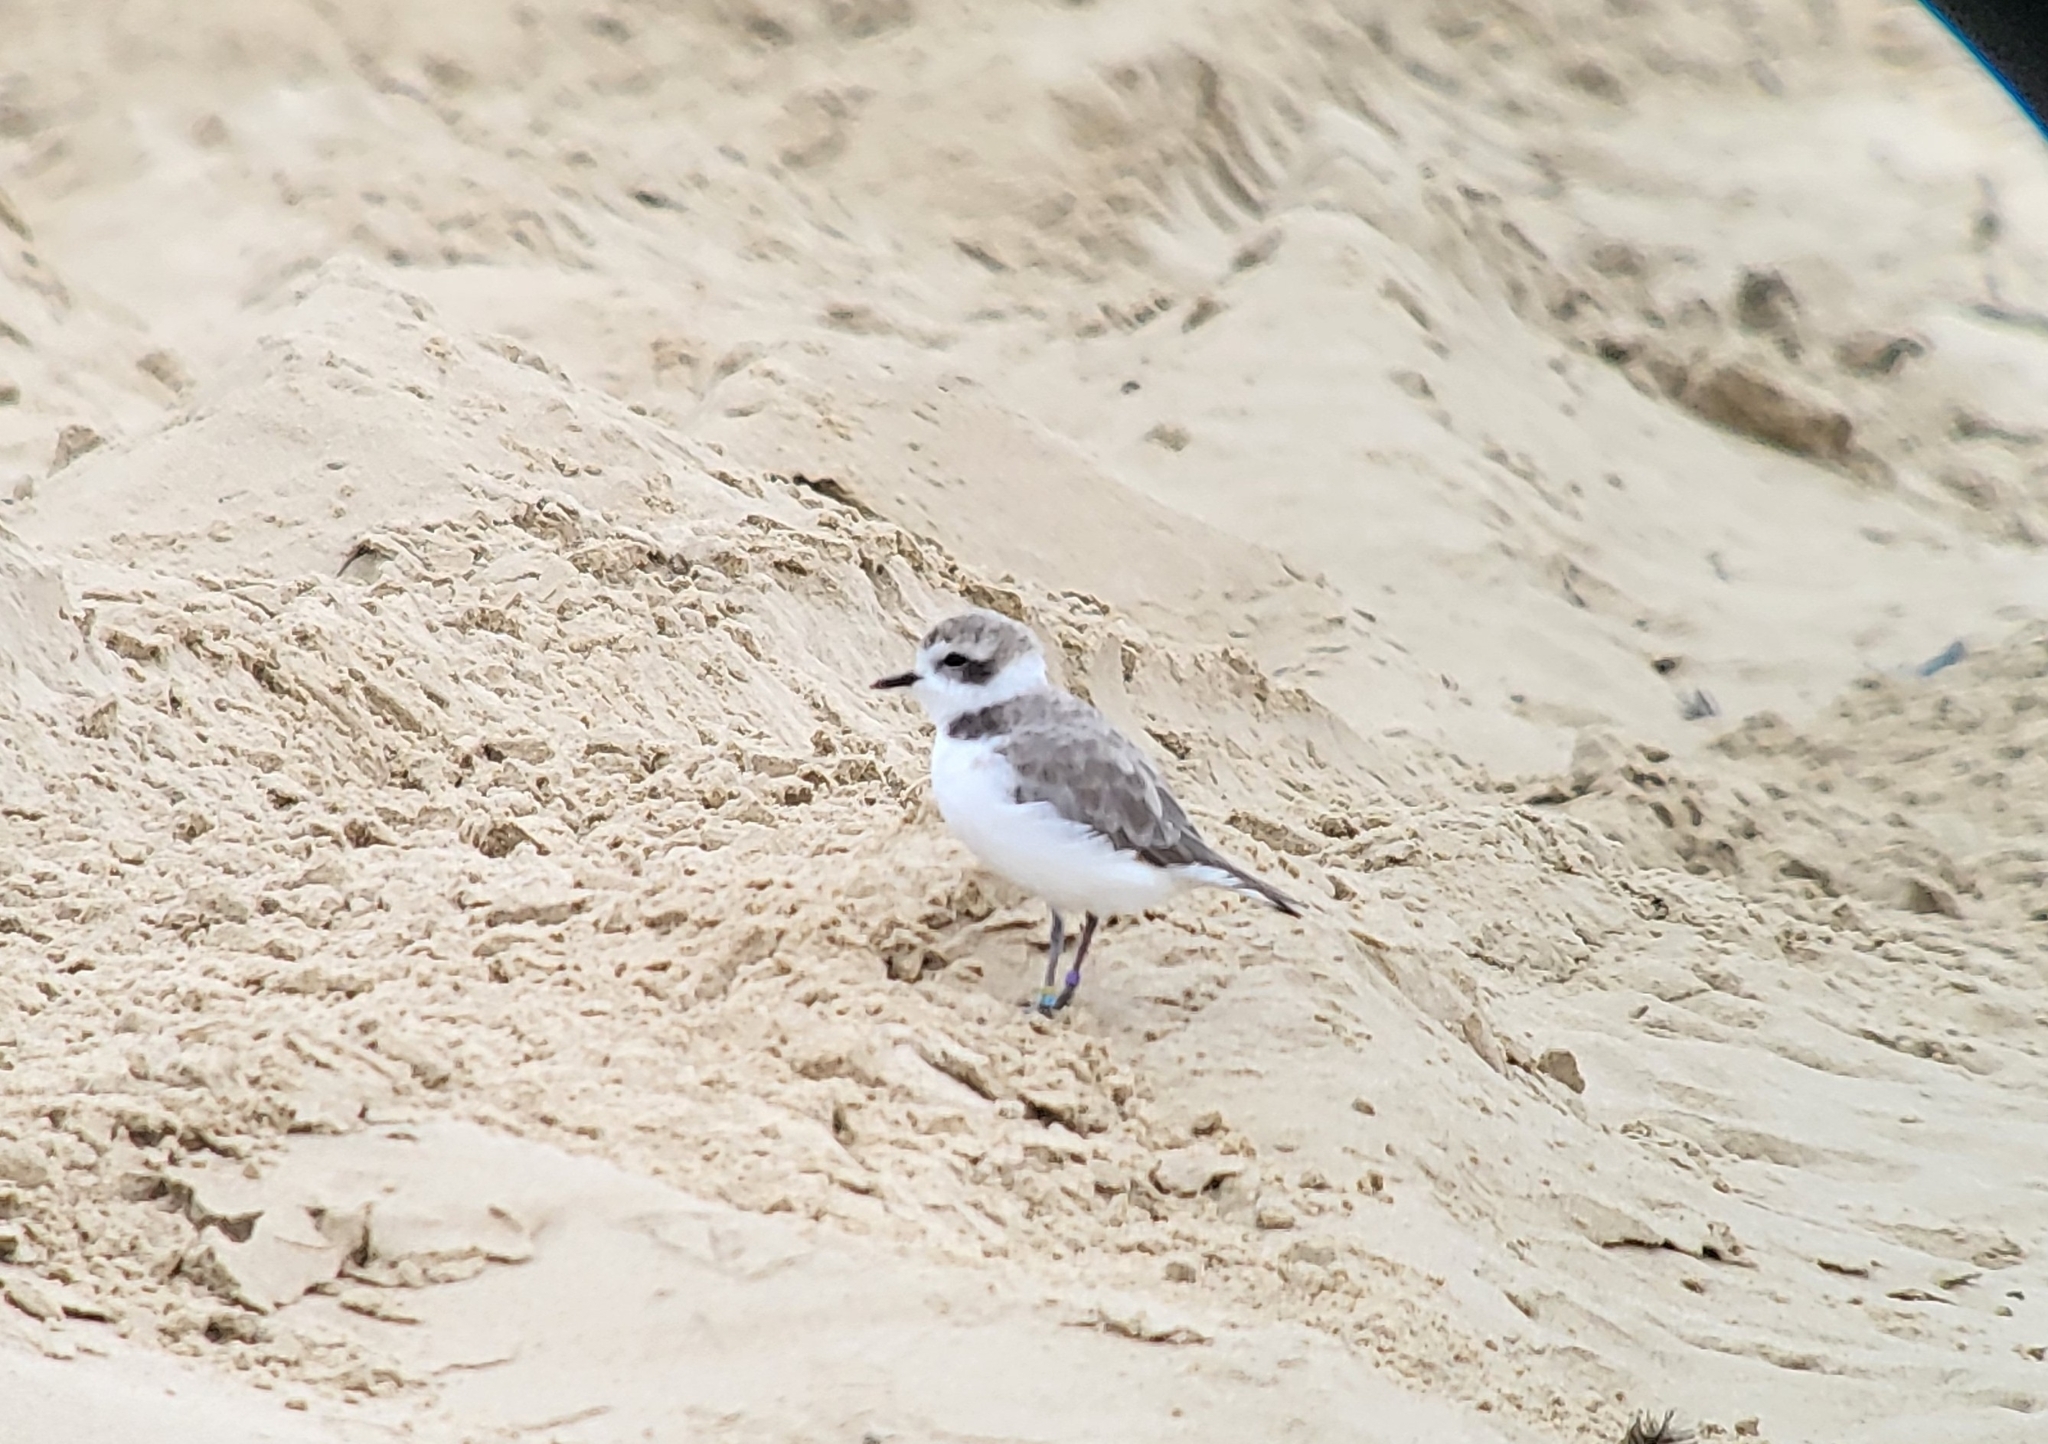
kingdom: Animalia
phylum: Chordata
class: Aves
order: Charadriiformes
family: Charadriidae
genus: Anarhynchus
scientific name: Anarhynchus
